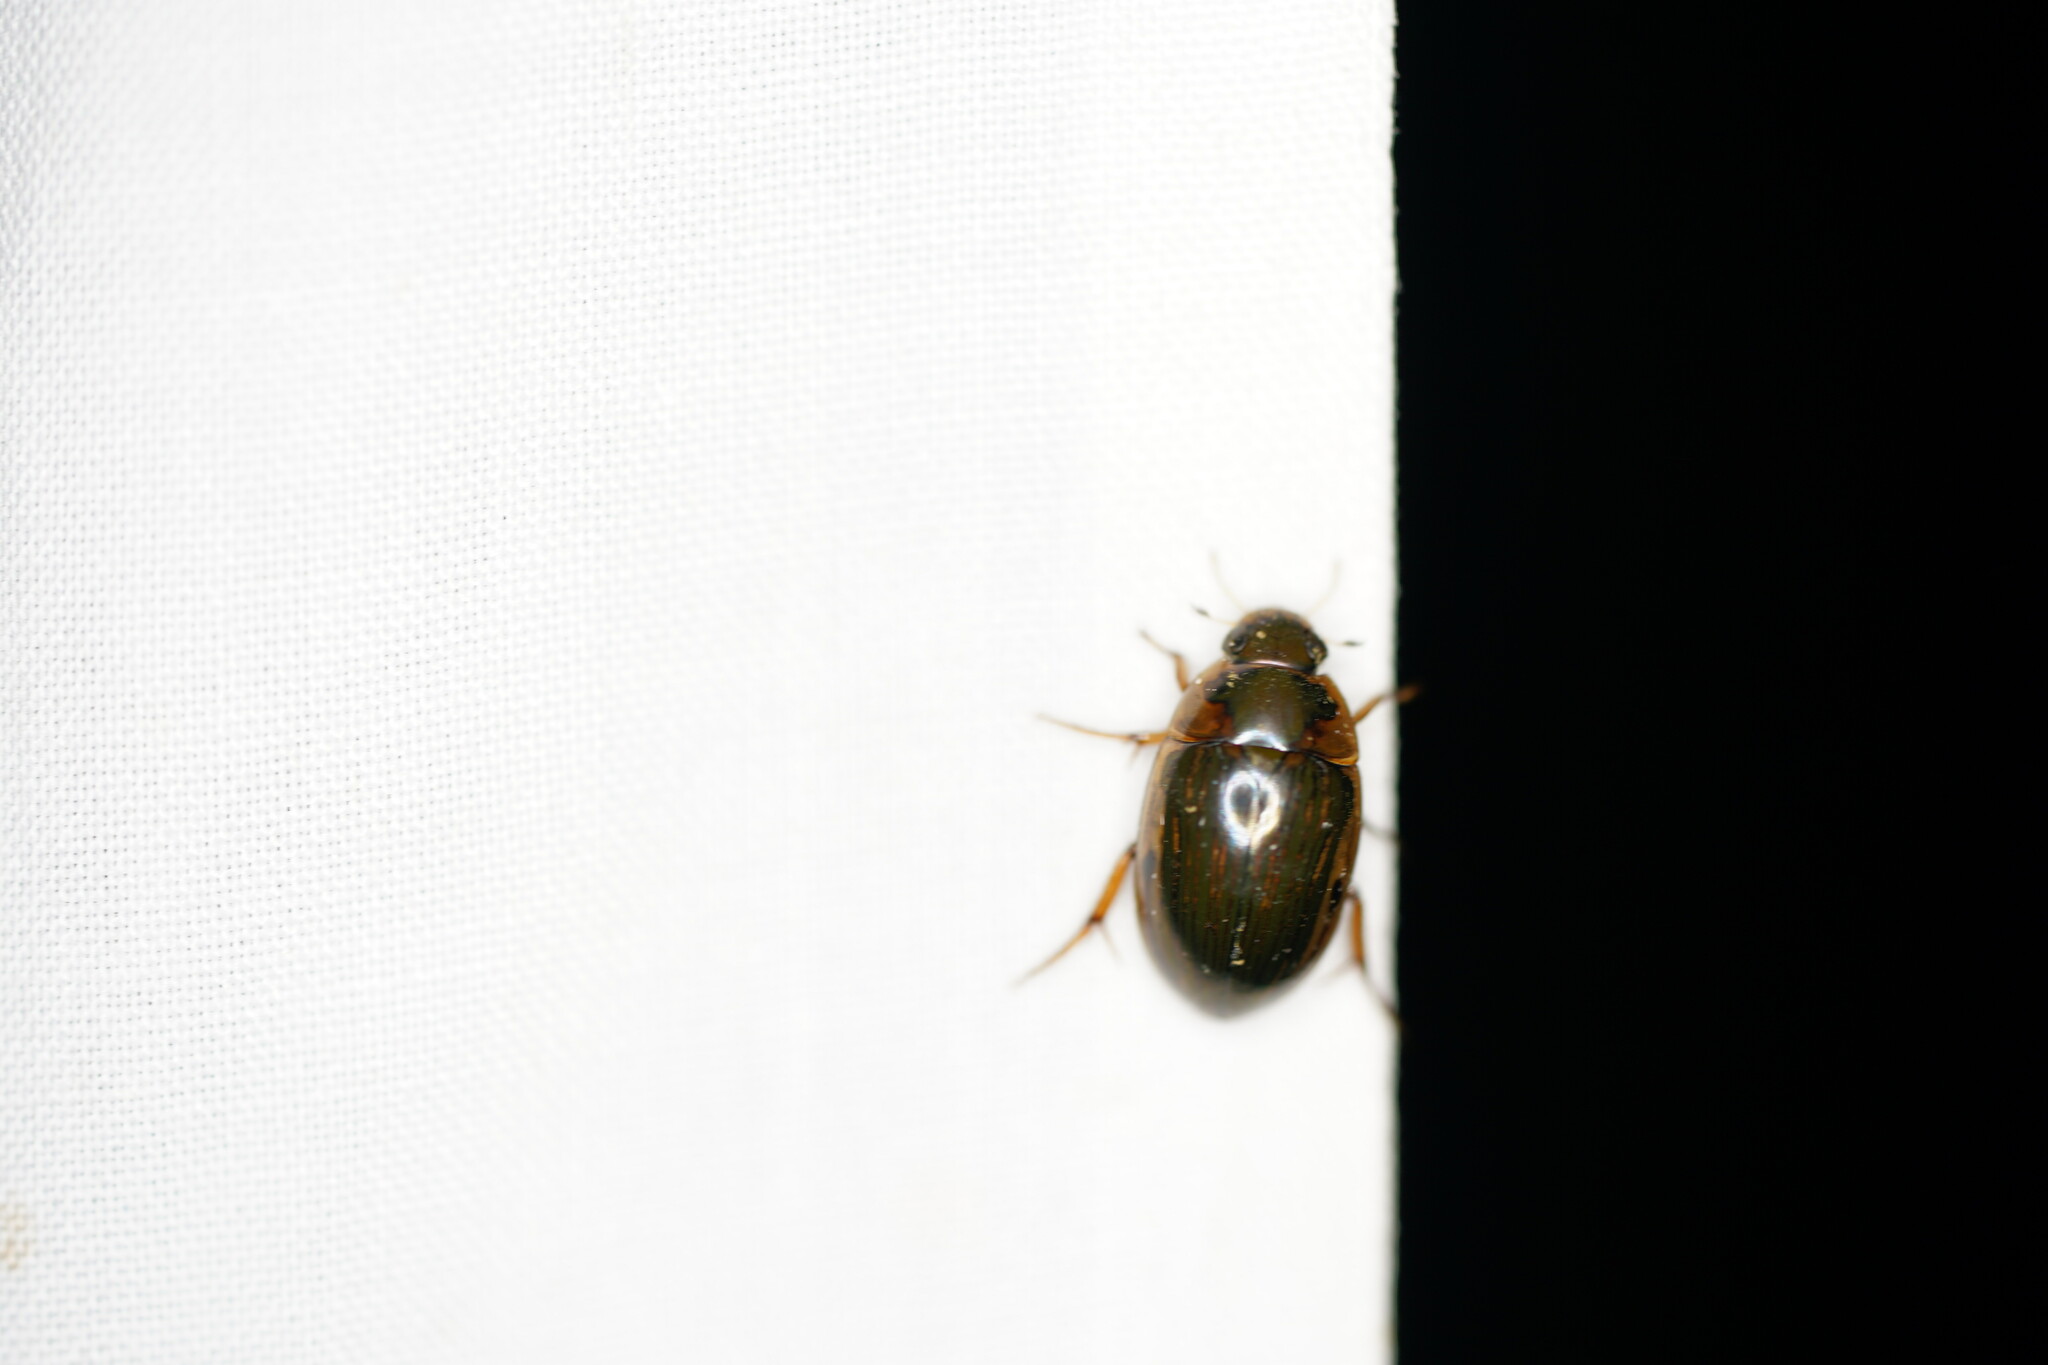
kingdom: Animalia
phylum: Arthropoda
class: Insecta
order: Coleoptera
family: Hydrophilidae
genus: Tropisternus
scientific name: Tropisternus collaris
